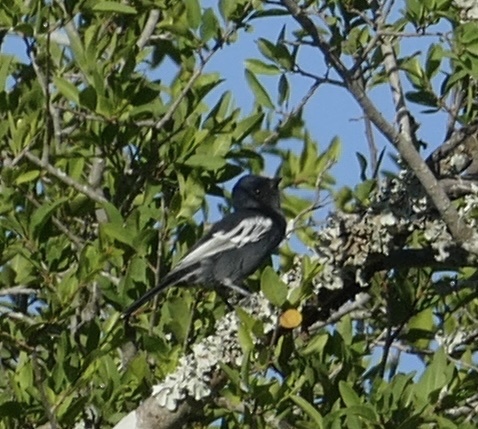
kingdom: Animalia
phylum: Chordata
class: Aves
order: Passeriformes
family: Paridae
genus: Parus
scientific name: Parus niger
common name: Southern black tit
